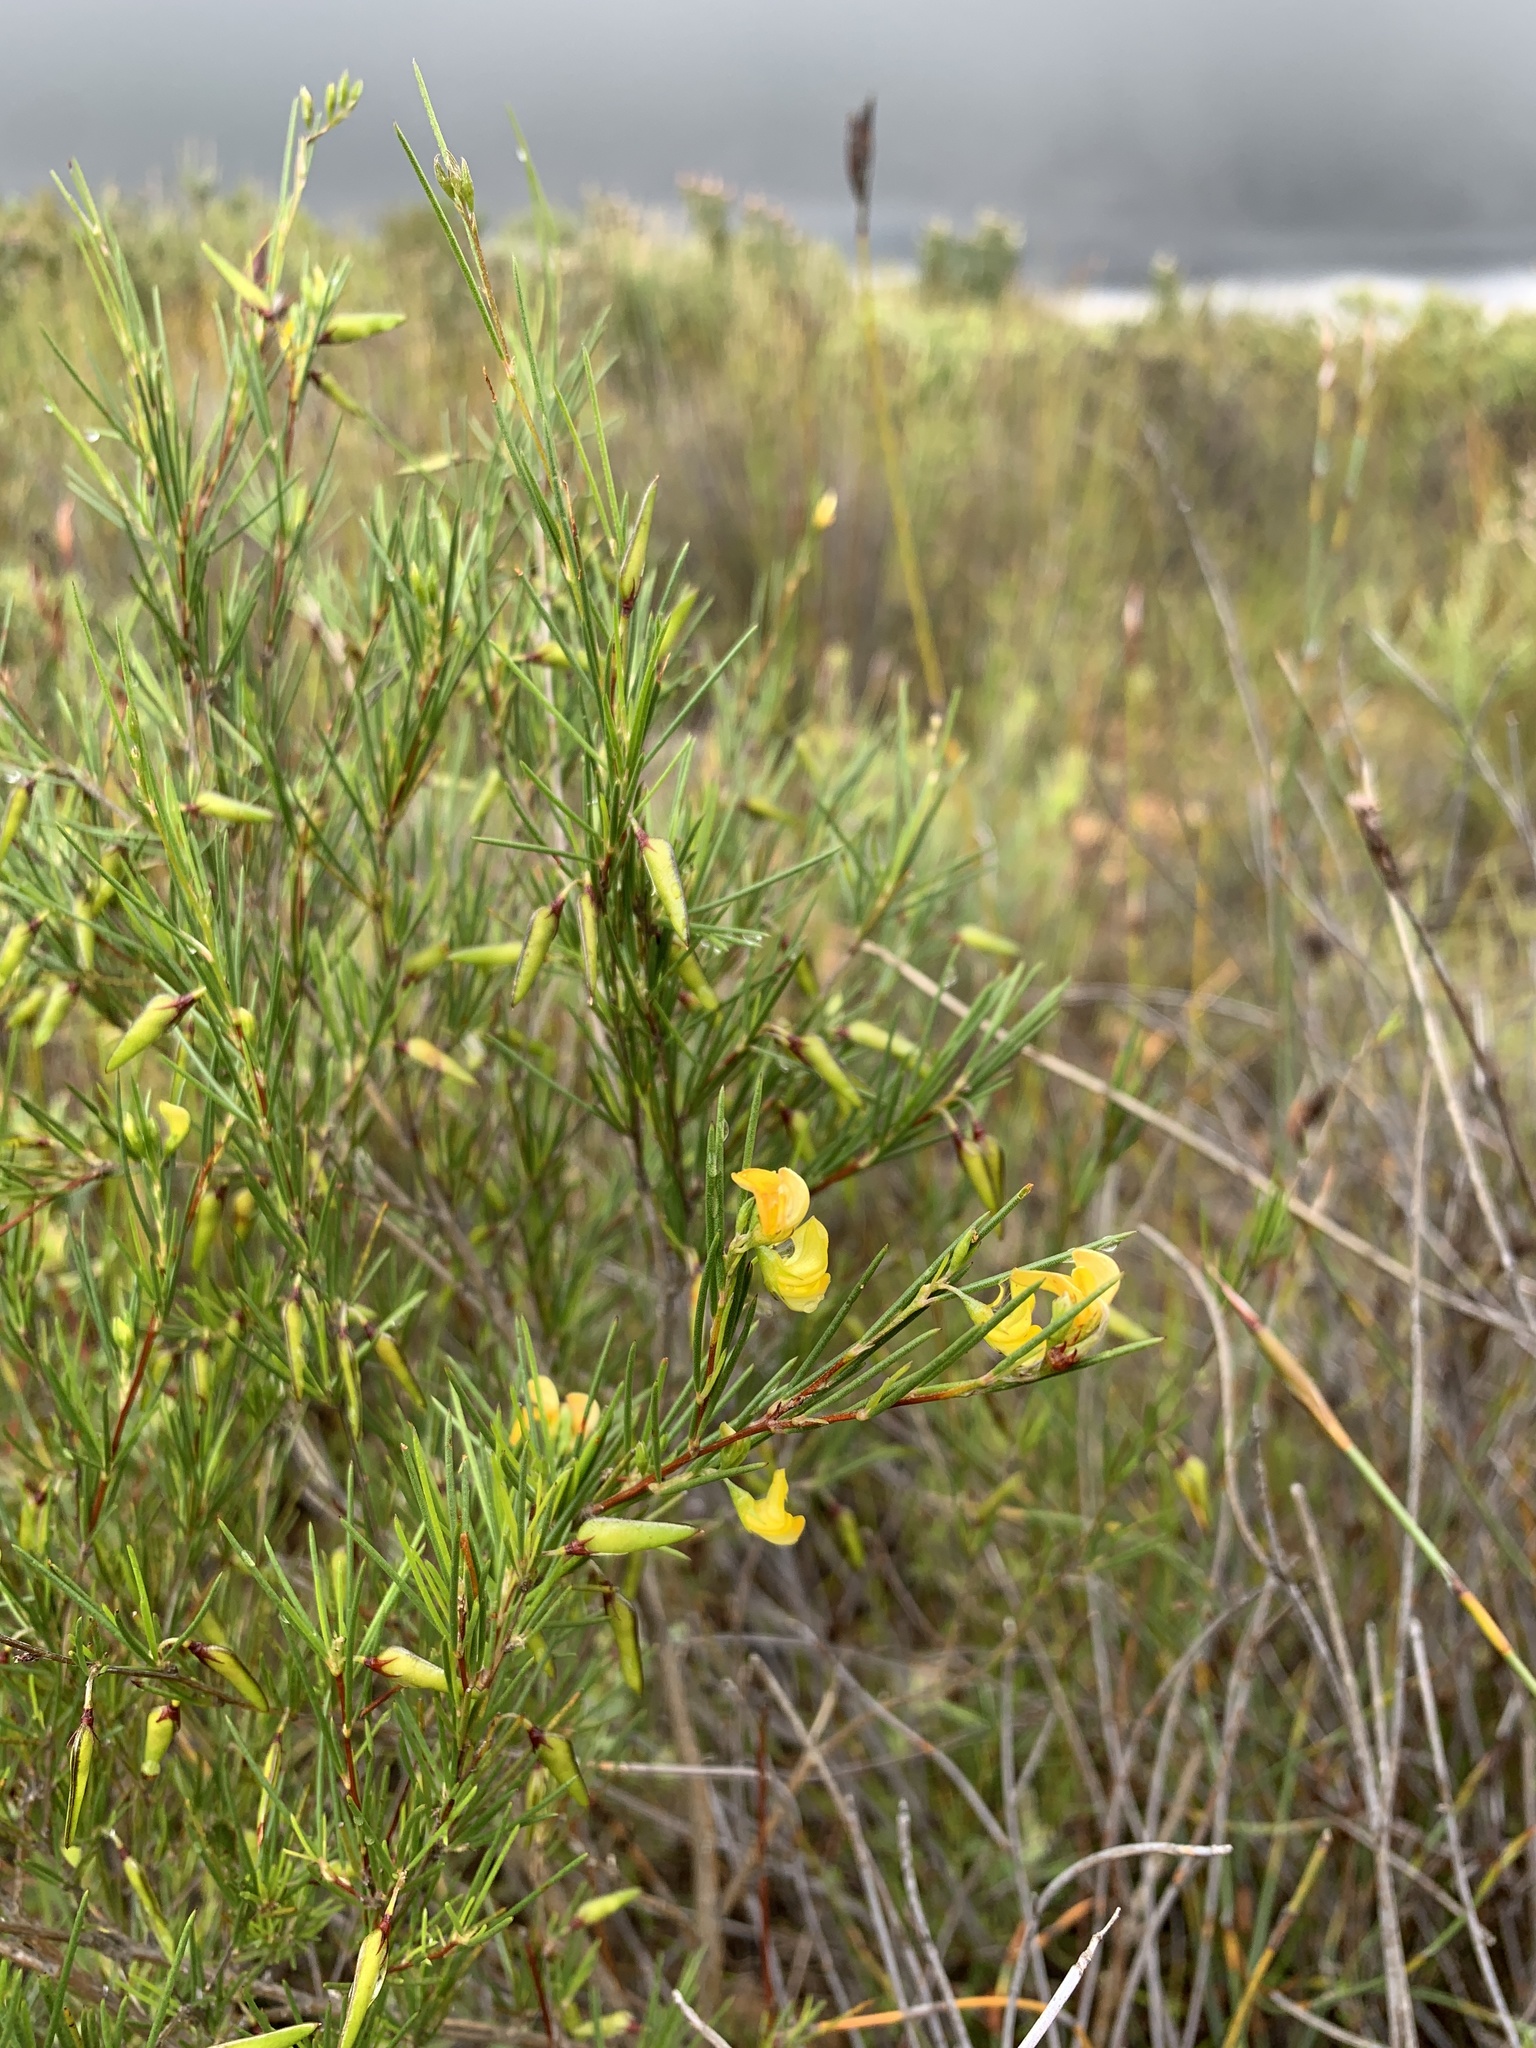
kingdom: Plantae
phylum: Tracheophyta
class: Magnoliopsida
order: Fabales
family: Fabaceae
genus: Aspalathus
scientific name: Aspalathus linearis
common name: Rooibos-tea
